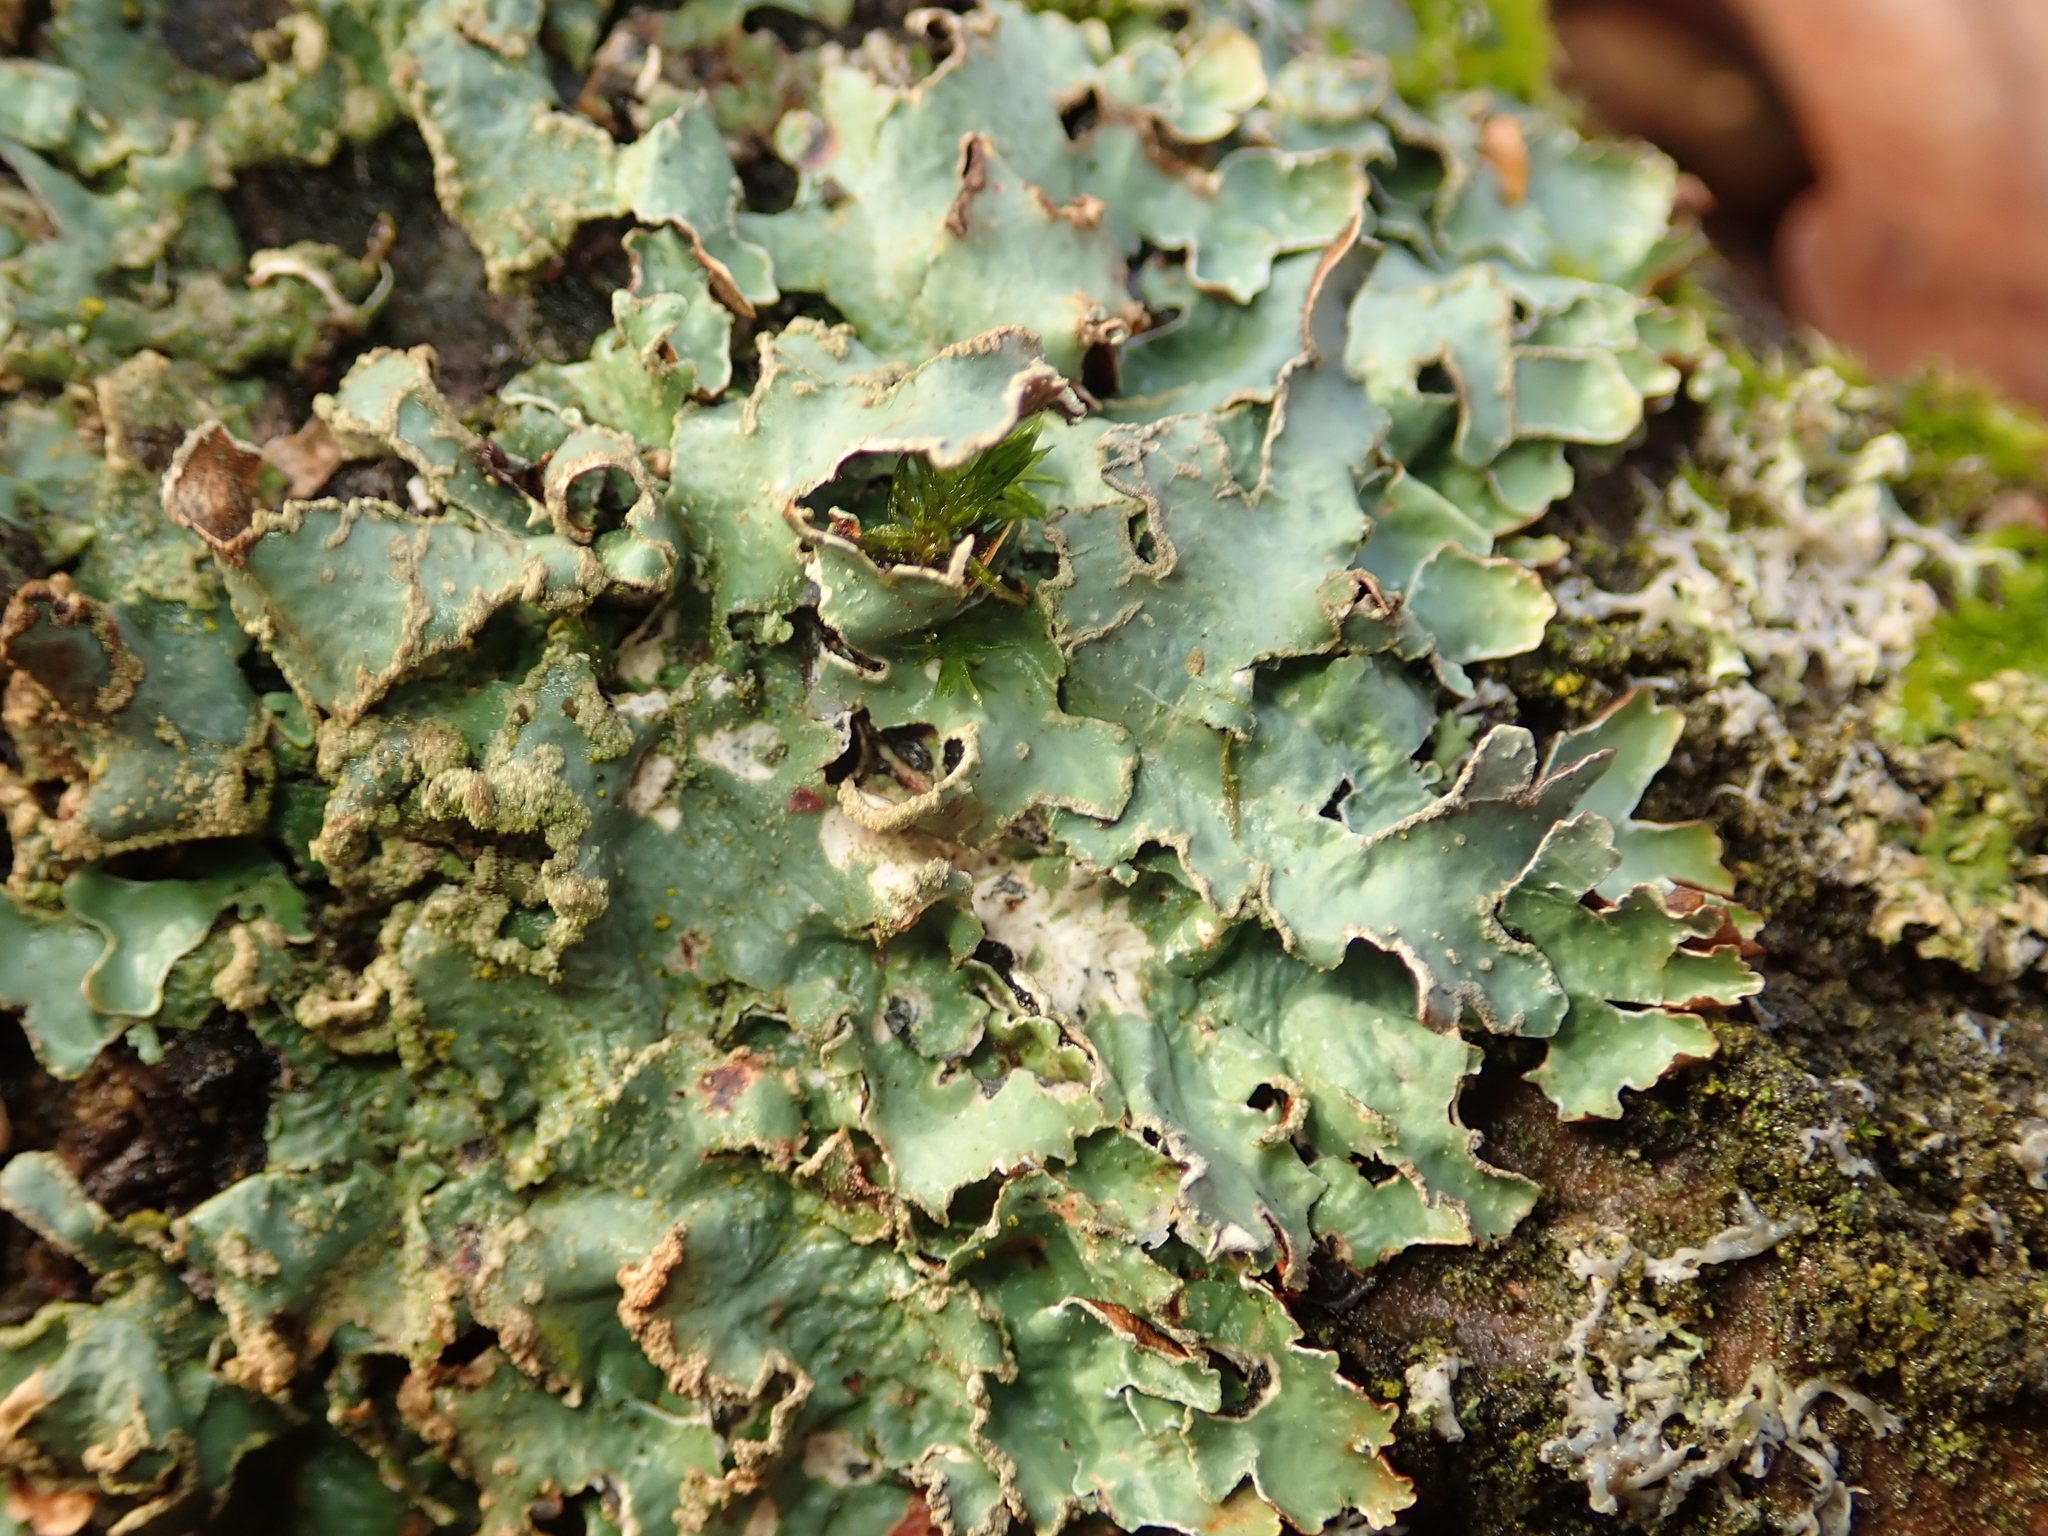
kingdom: Fungi
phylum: Ascomycota
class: Lecanoromycetes
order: Lecanorales
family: Parmeliaceae
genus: Parmelia
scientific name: Parmelia sulcata
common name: Netted shield lichen
